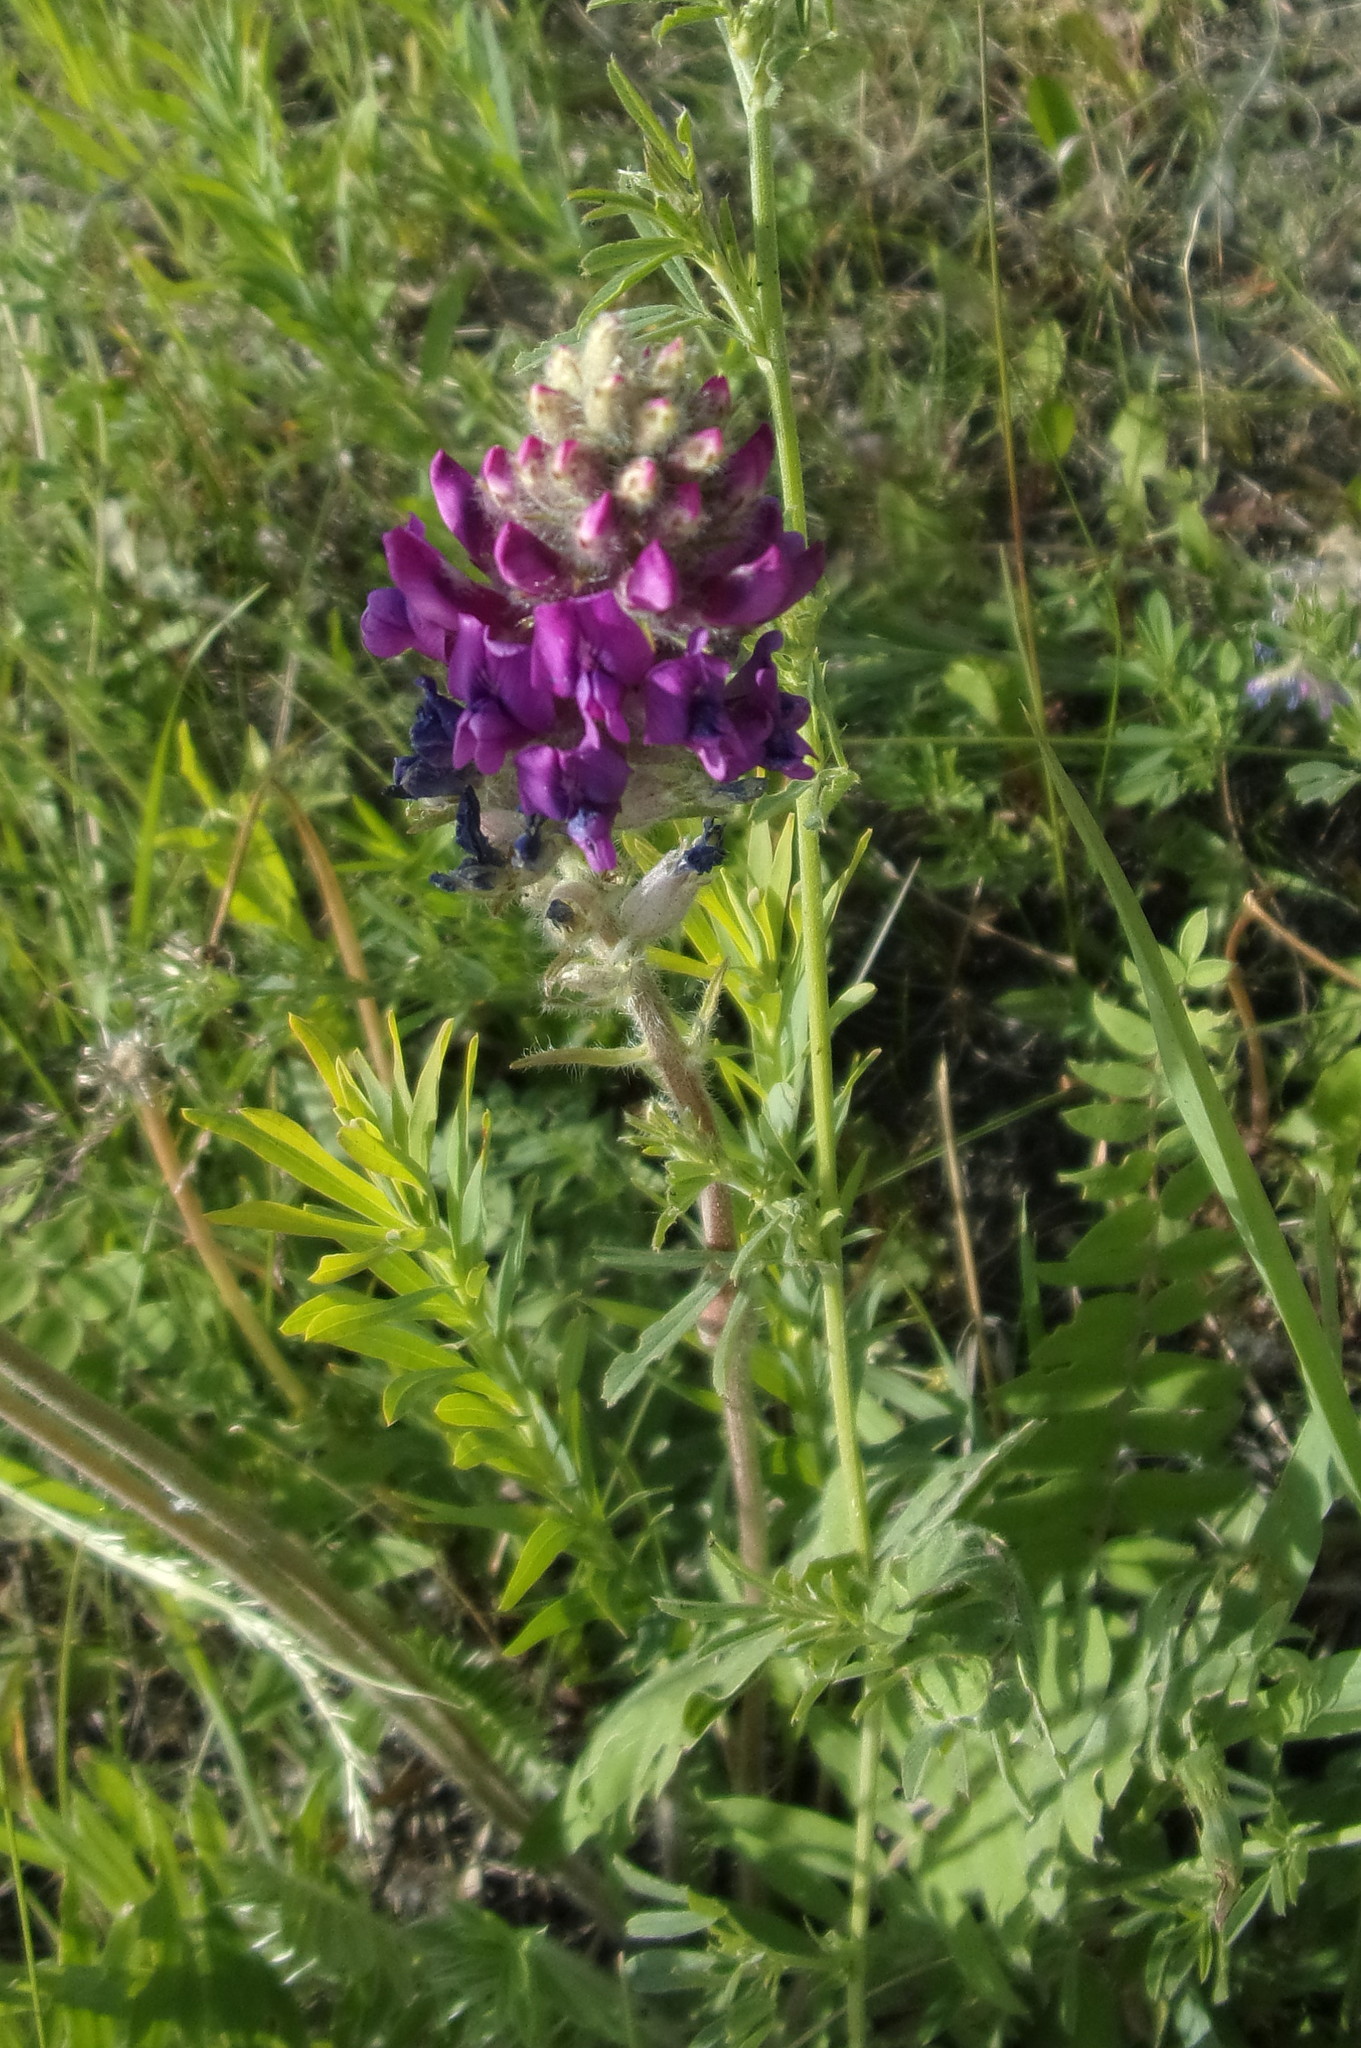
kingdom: Plantae
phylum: Tracheophyta
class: Magnoliopsida
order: Fabales
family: Fabaceae
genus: Oxytropis
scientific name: Oxytropis campanulata
